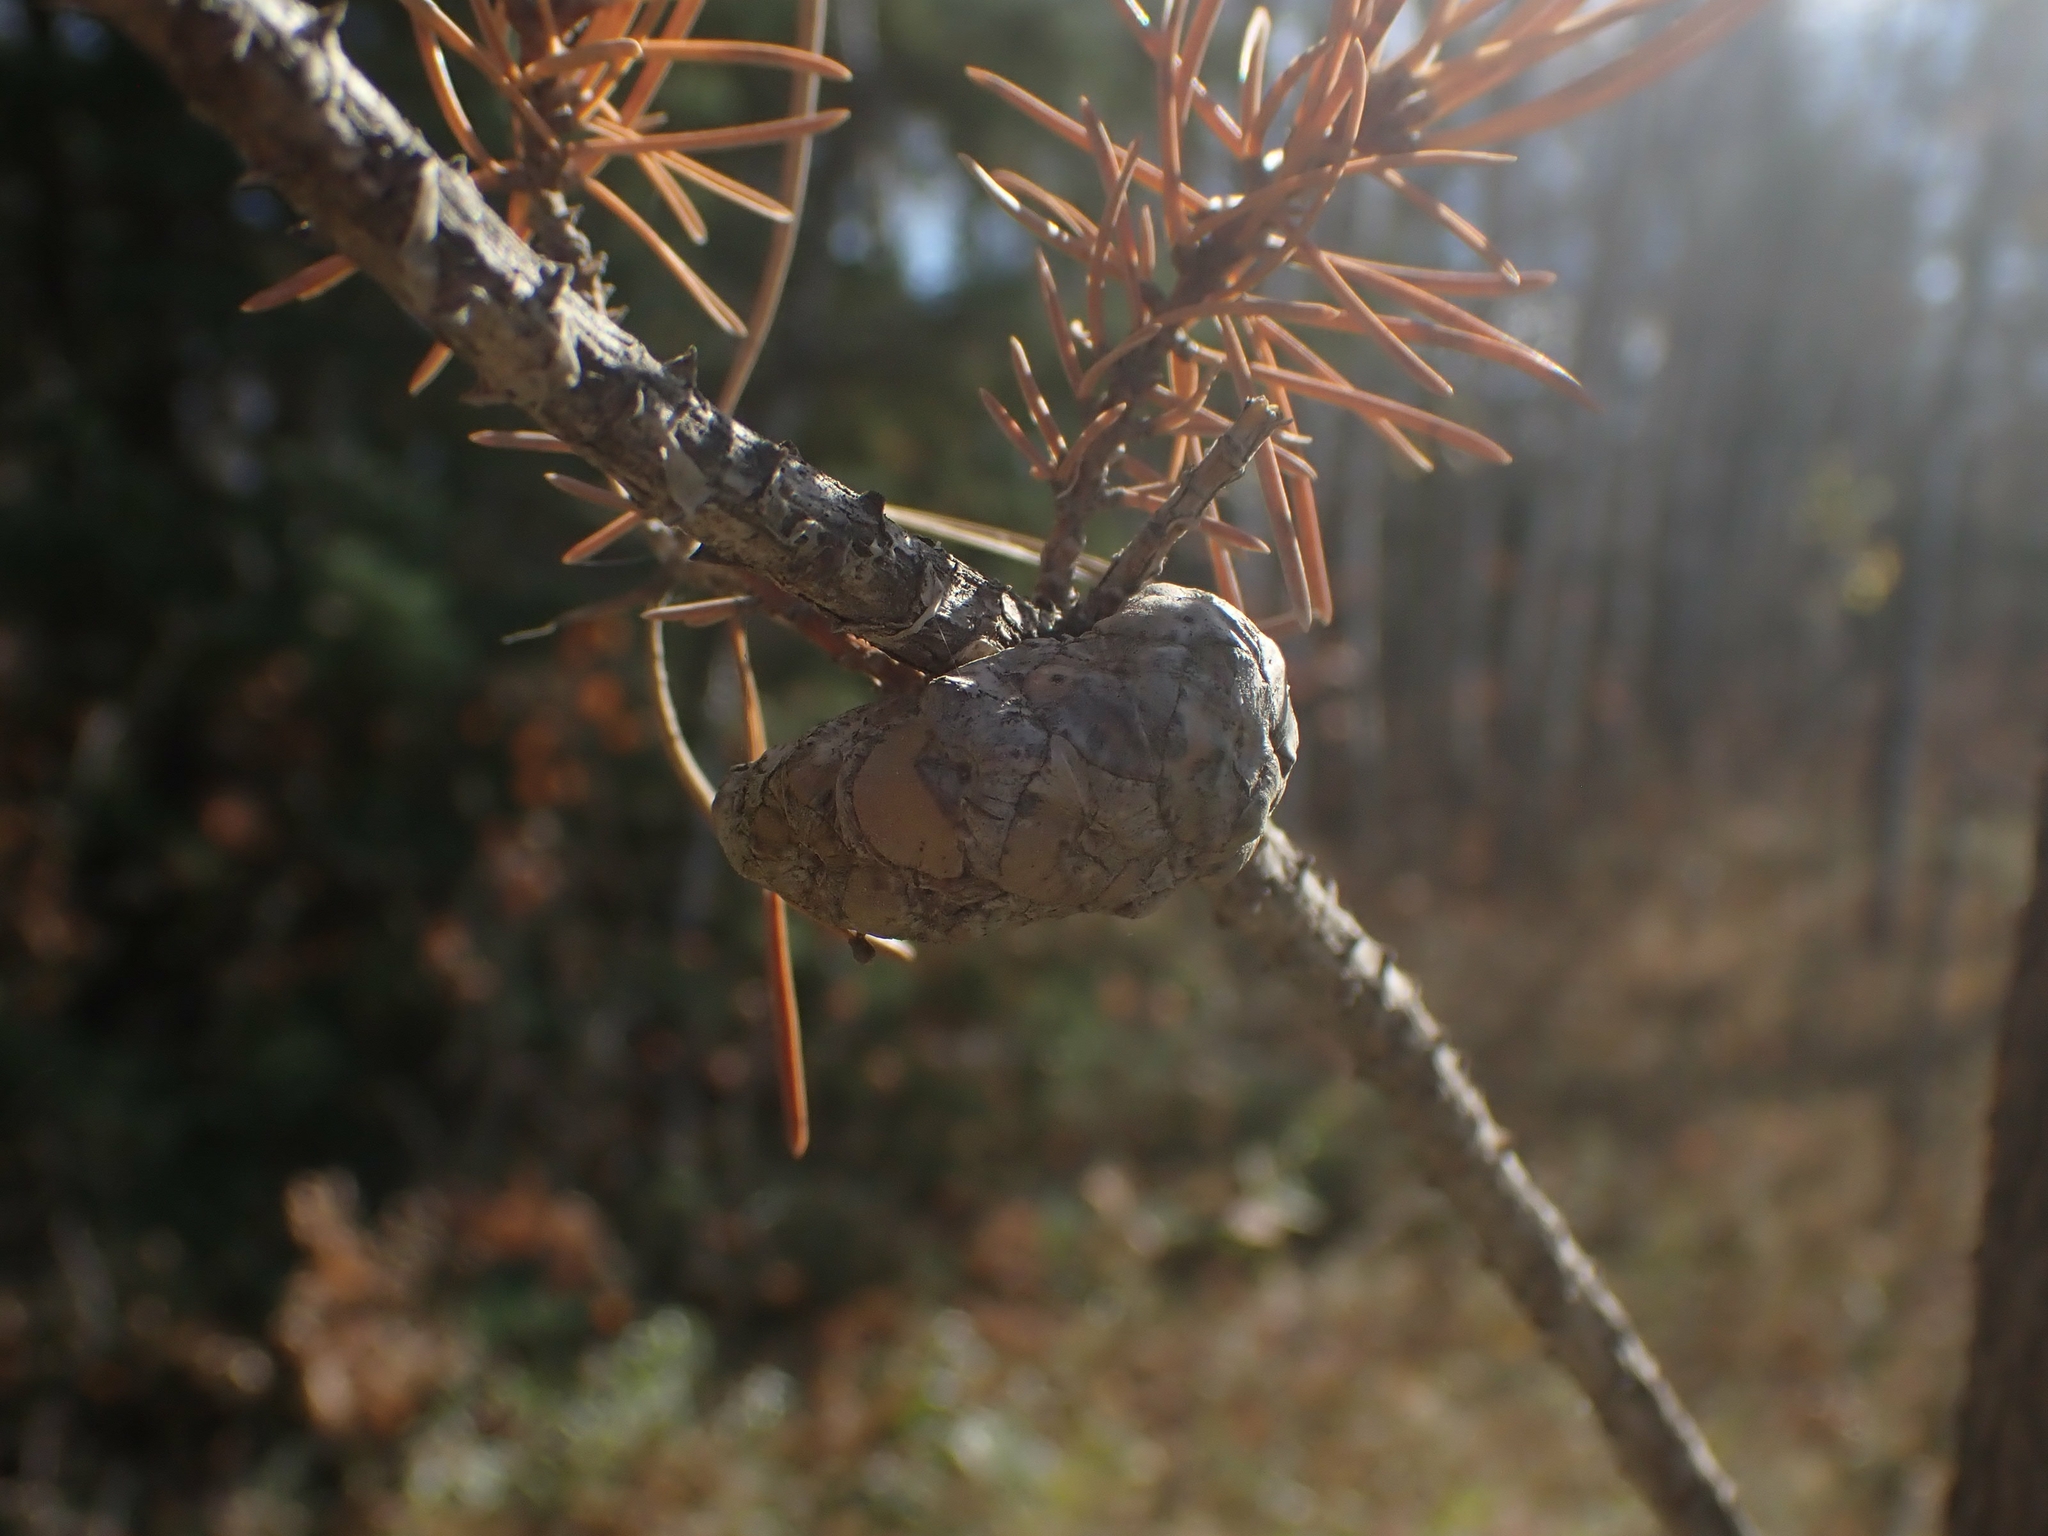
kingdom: Plantae
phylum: Tracheophyta
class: Pinopsida
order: Pinales
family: Pinaceae
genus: Pinus
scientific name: Pinus banksiana
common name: Jack pine
